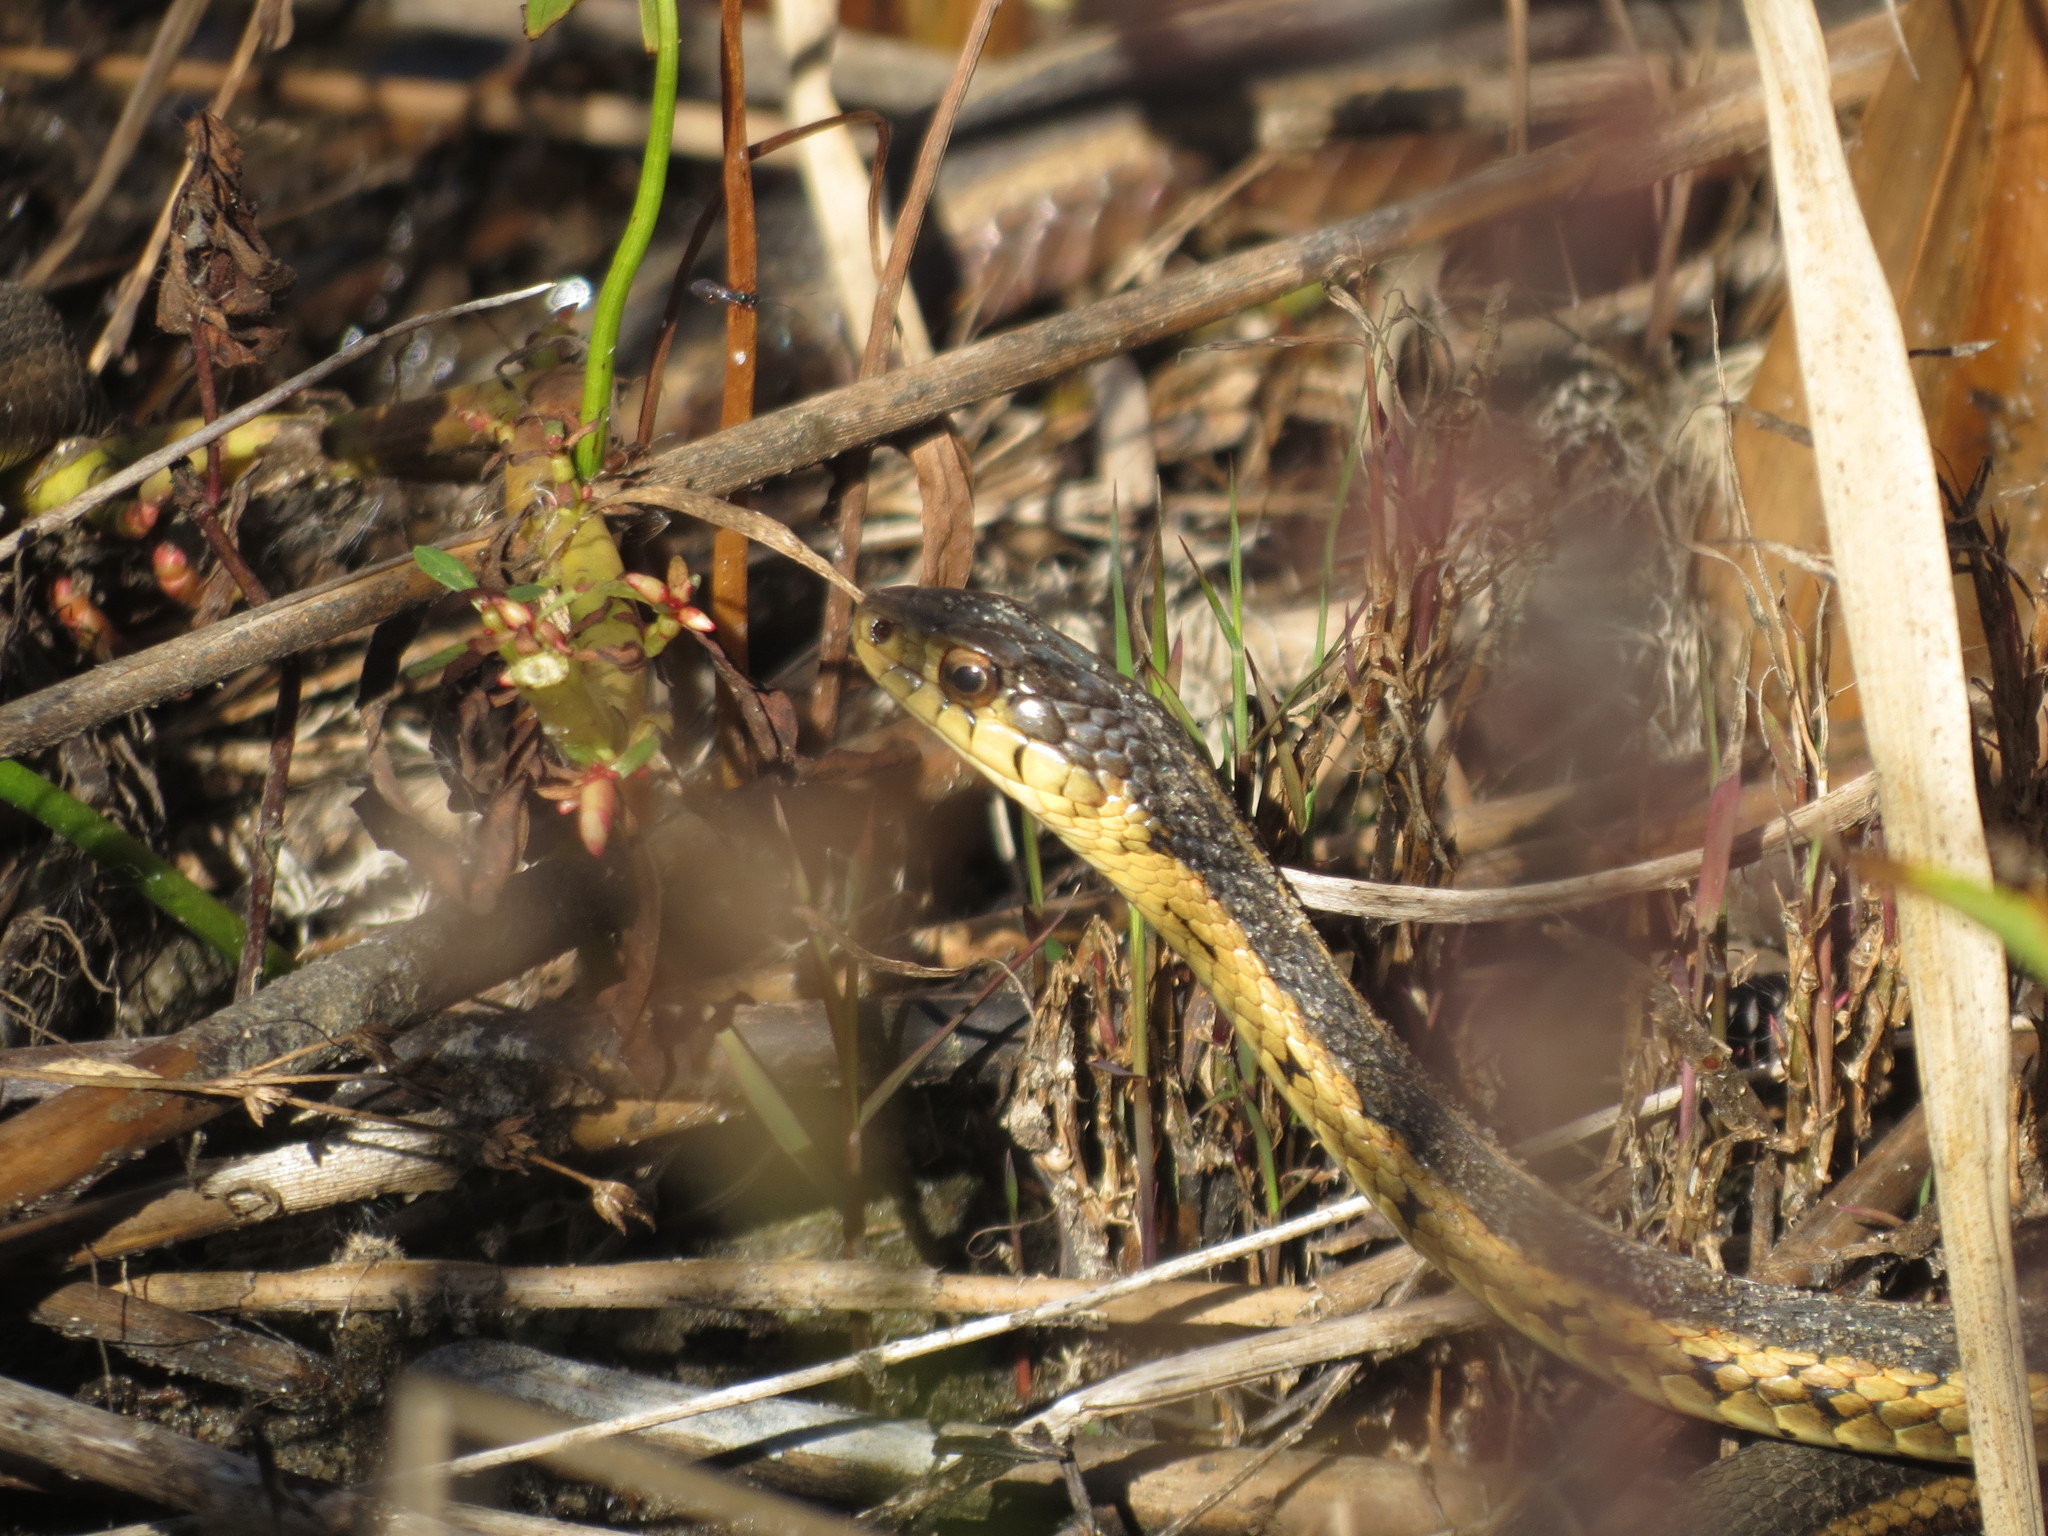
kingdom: Animalia
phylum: Chordata
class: Squamata
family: Colubridae
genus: Thamnophis
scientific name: Thamnophis sirtalis
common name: Common garter snake
